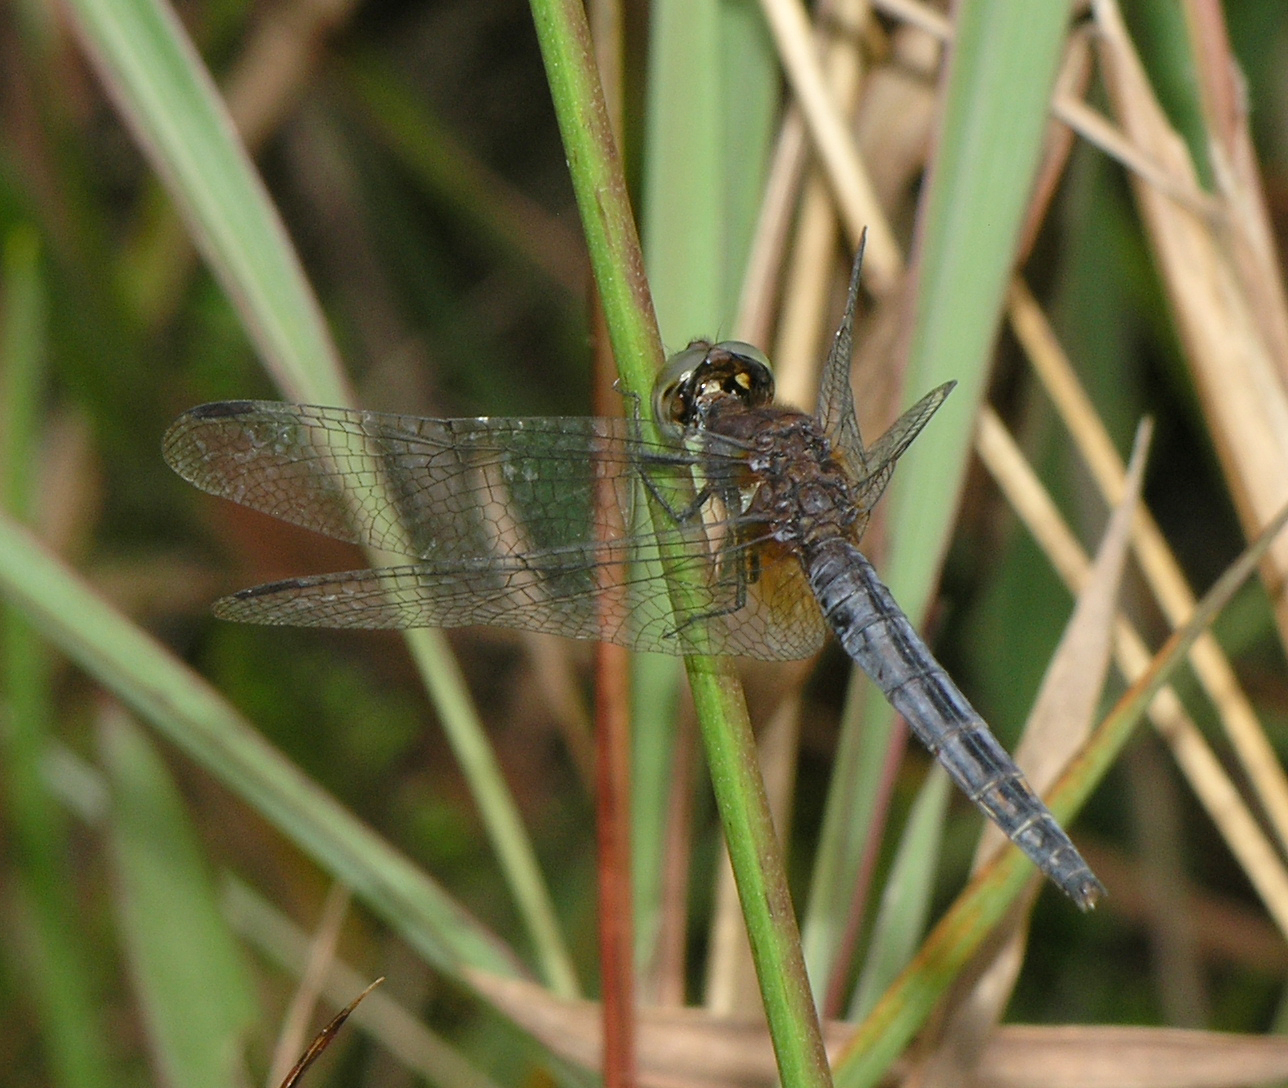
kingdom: Animalia
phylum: Arthropoda
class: Insecta
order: Odonata
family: Libellulidae
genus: Indothemis
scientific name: Indothemis limbata
